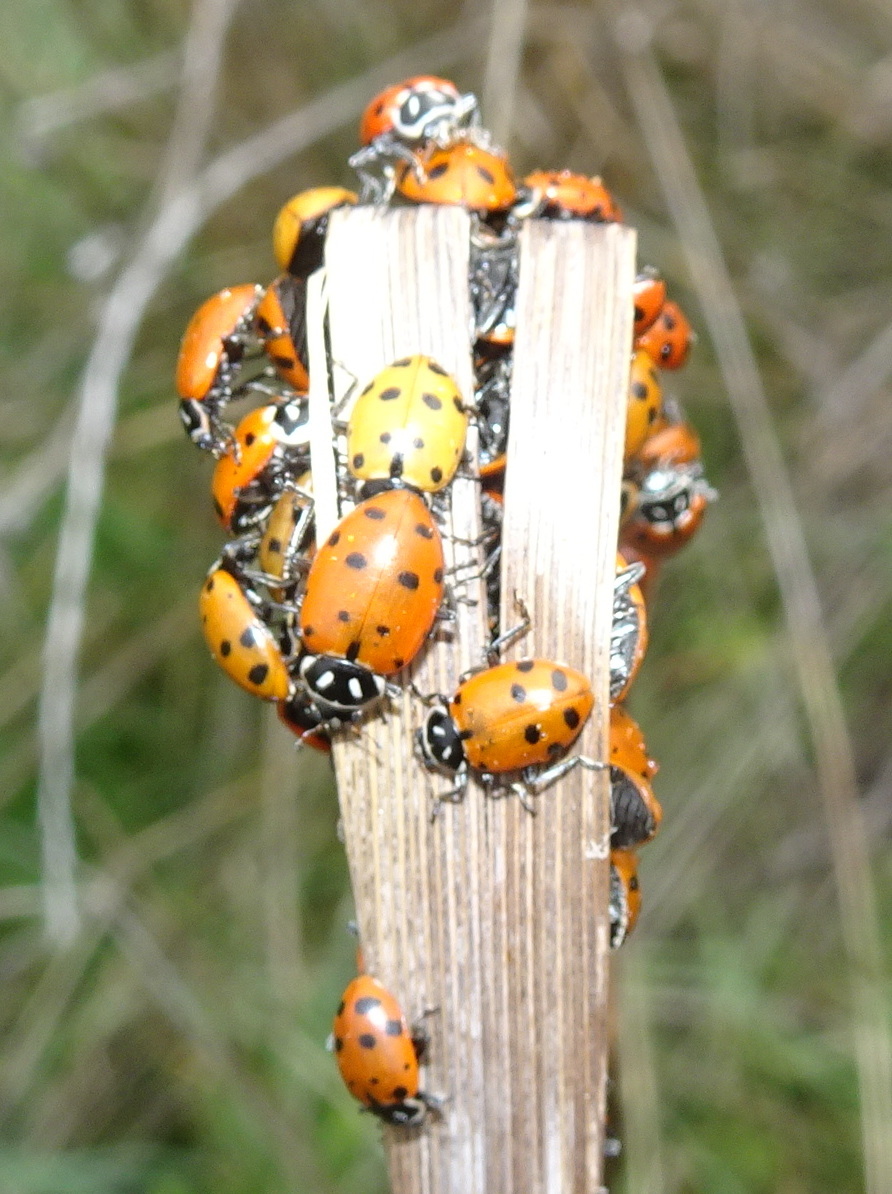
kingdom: Animalia
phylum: Arthropoda
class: Insecta
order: Coleoptera
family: Coccinellidae
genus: Hippodamia
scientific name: Hippodamia convergens
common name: Convergent lady beetle
